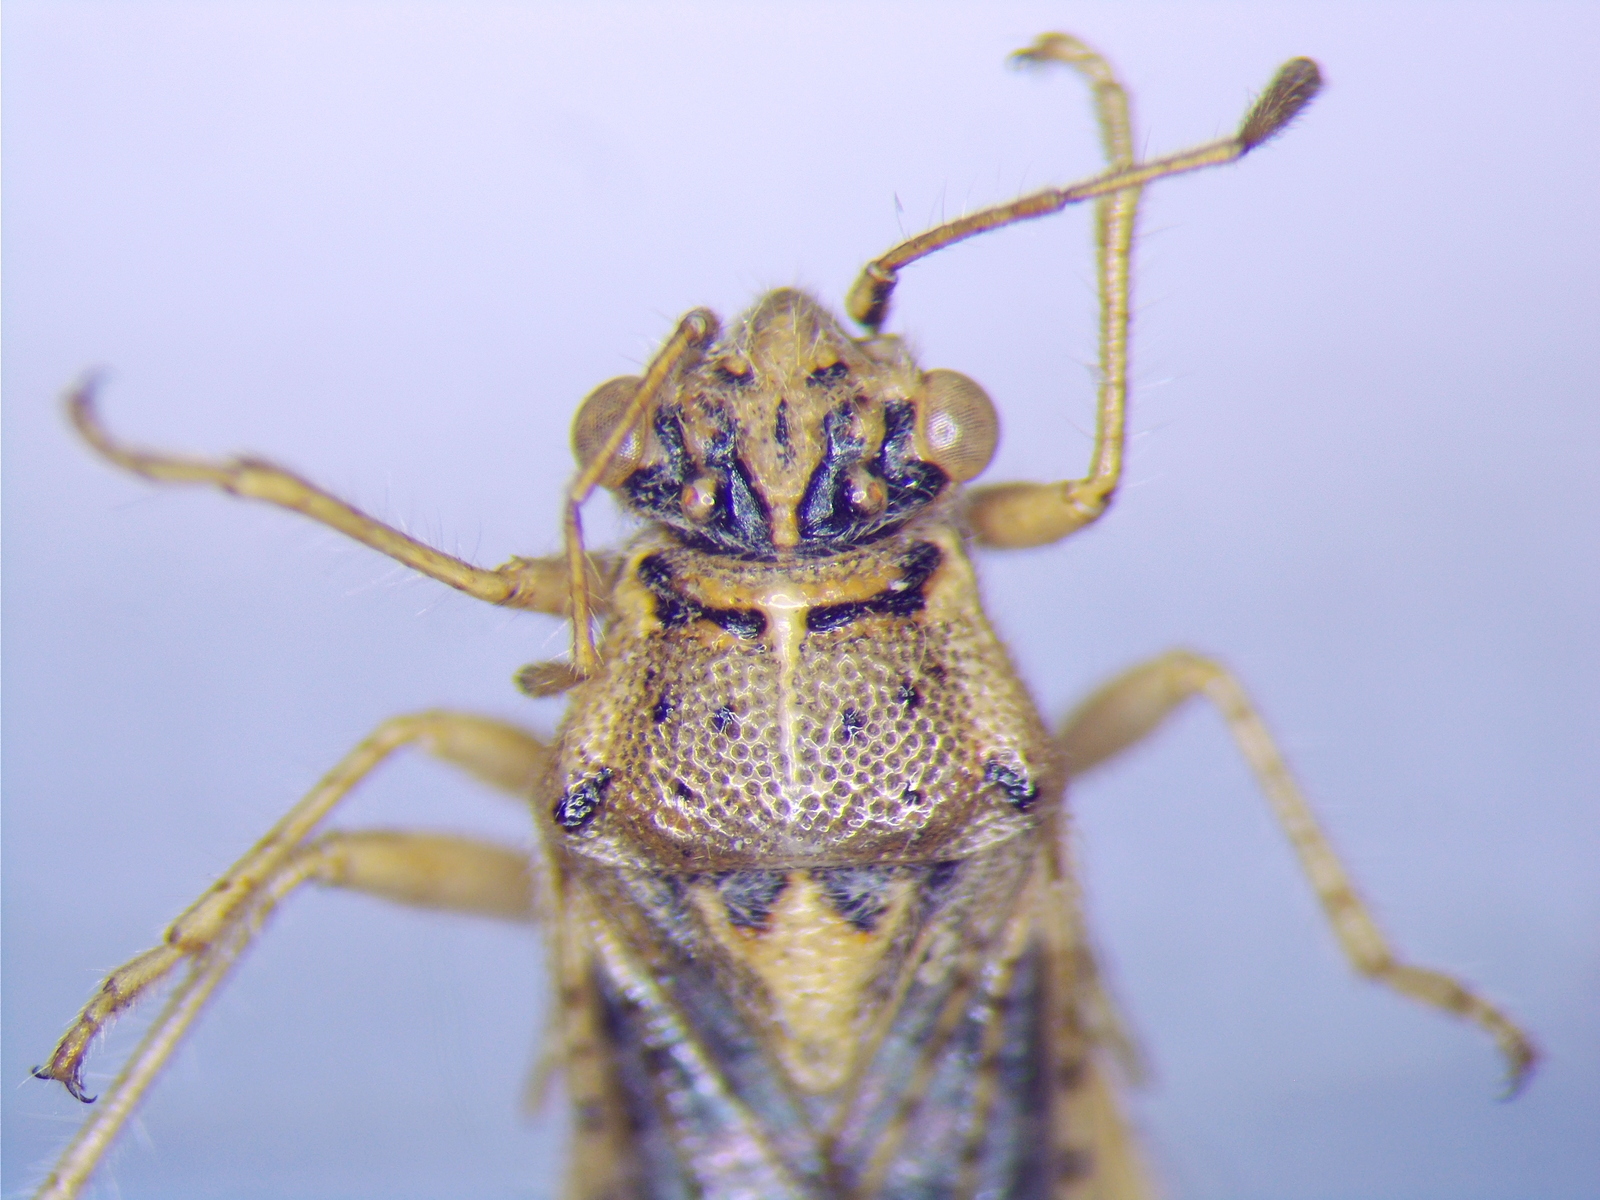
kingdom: Animalia
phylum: Arthropoda
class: Insecta
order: Hemiptera
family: Rhopalidae
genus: Brachycarenus
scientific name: Brachycarenus tigrinus
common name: Scentless plant bug
